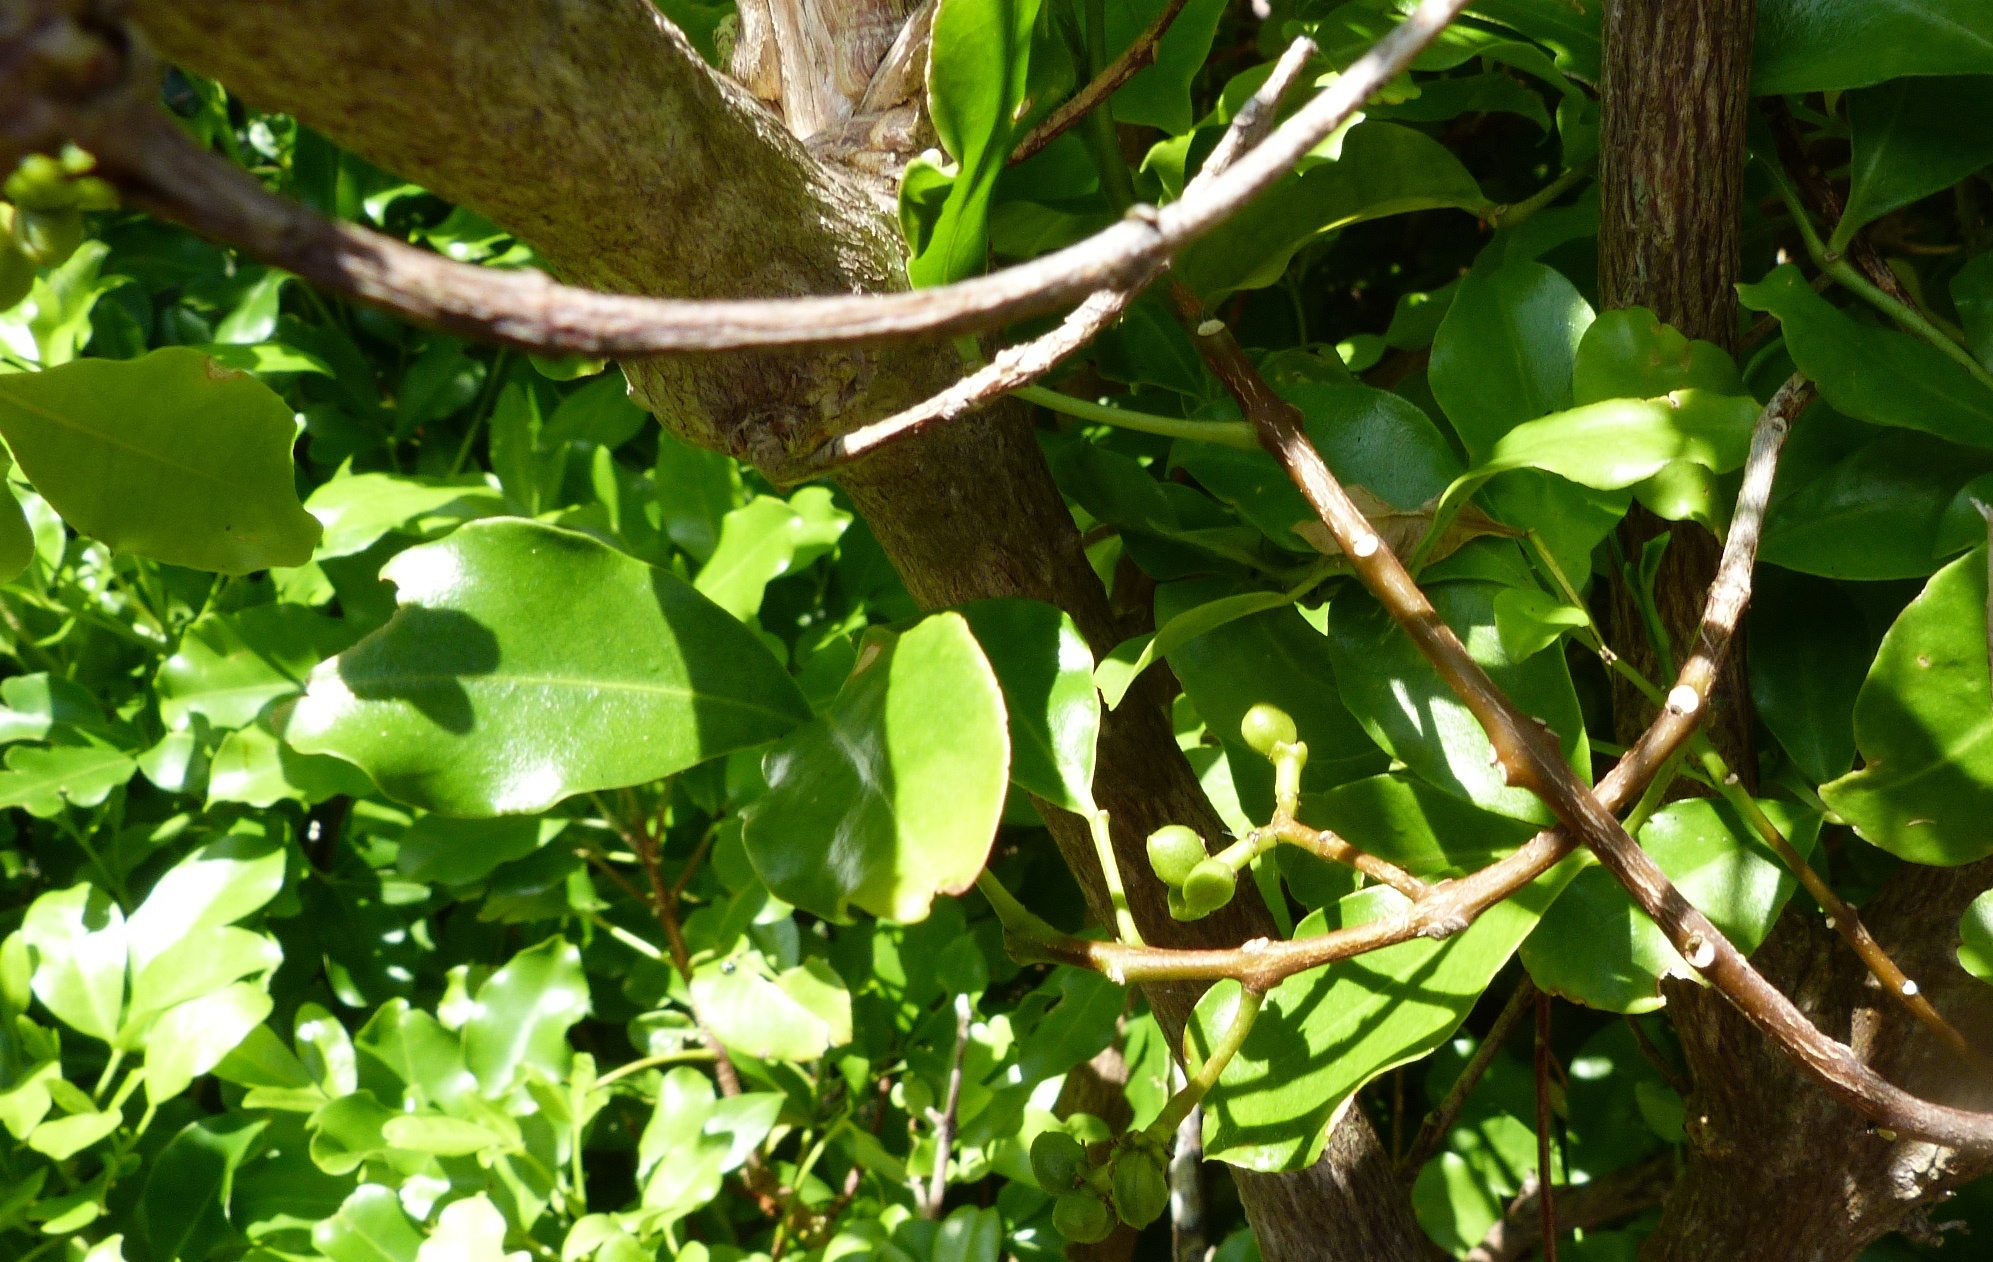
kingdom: Plantae
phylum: Tracheophyta
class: Magnoliopsida
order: Sapindales
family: Rutaceae
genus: Melicope
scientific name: Melicope ternata
